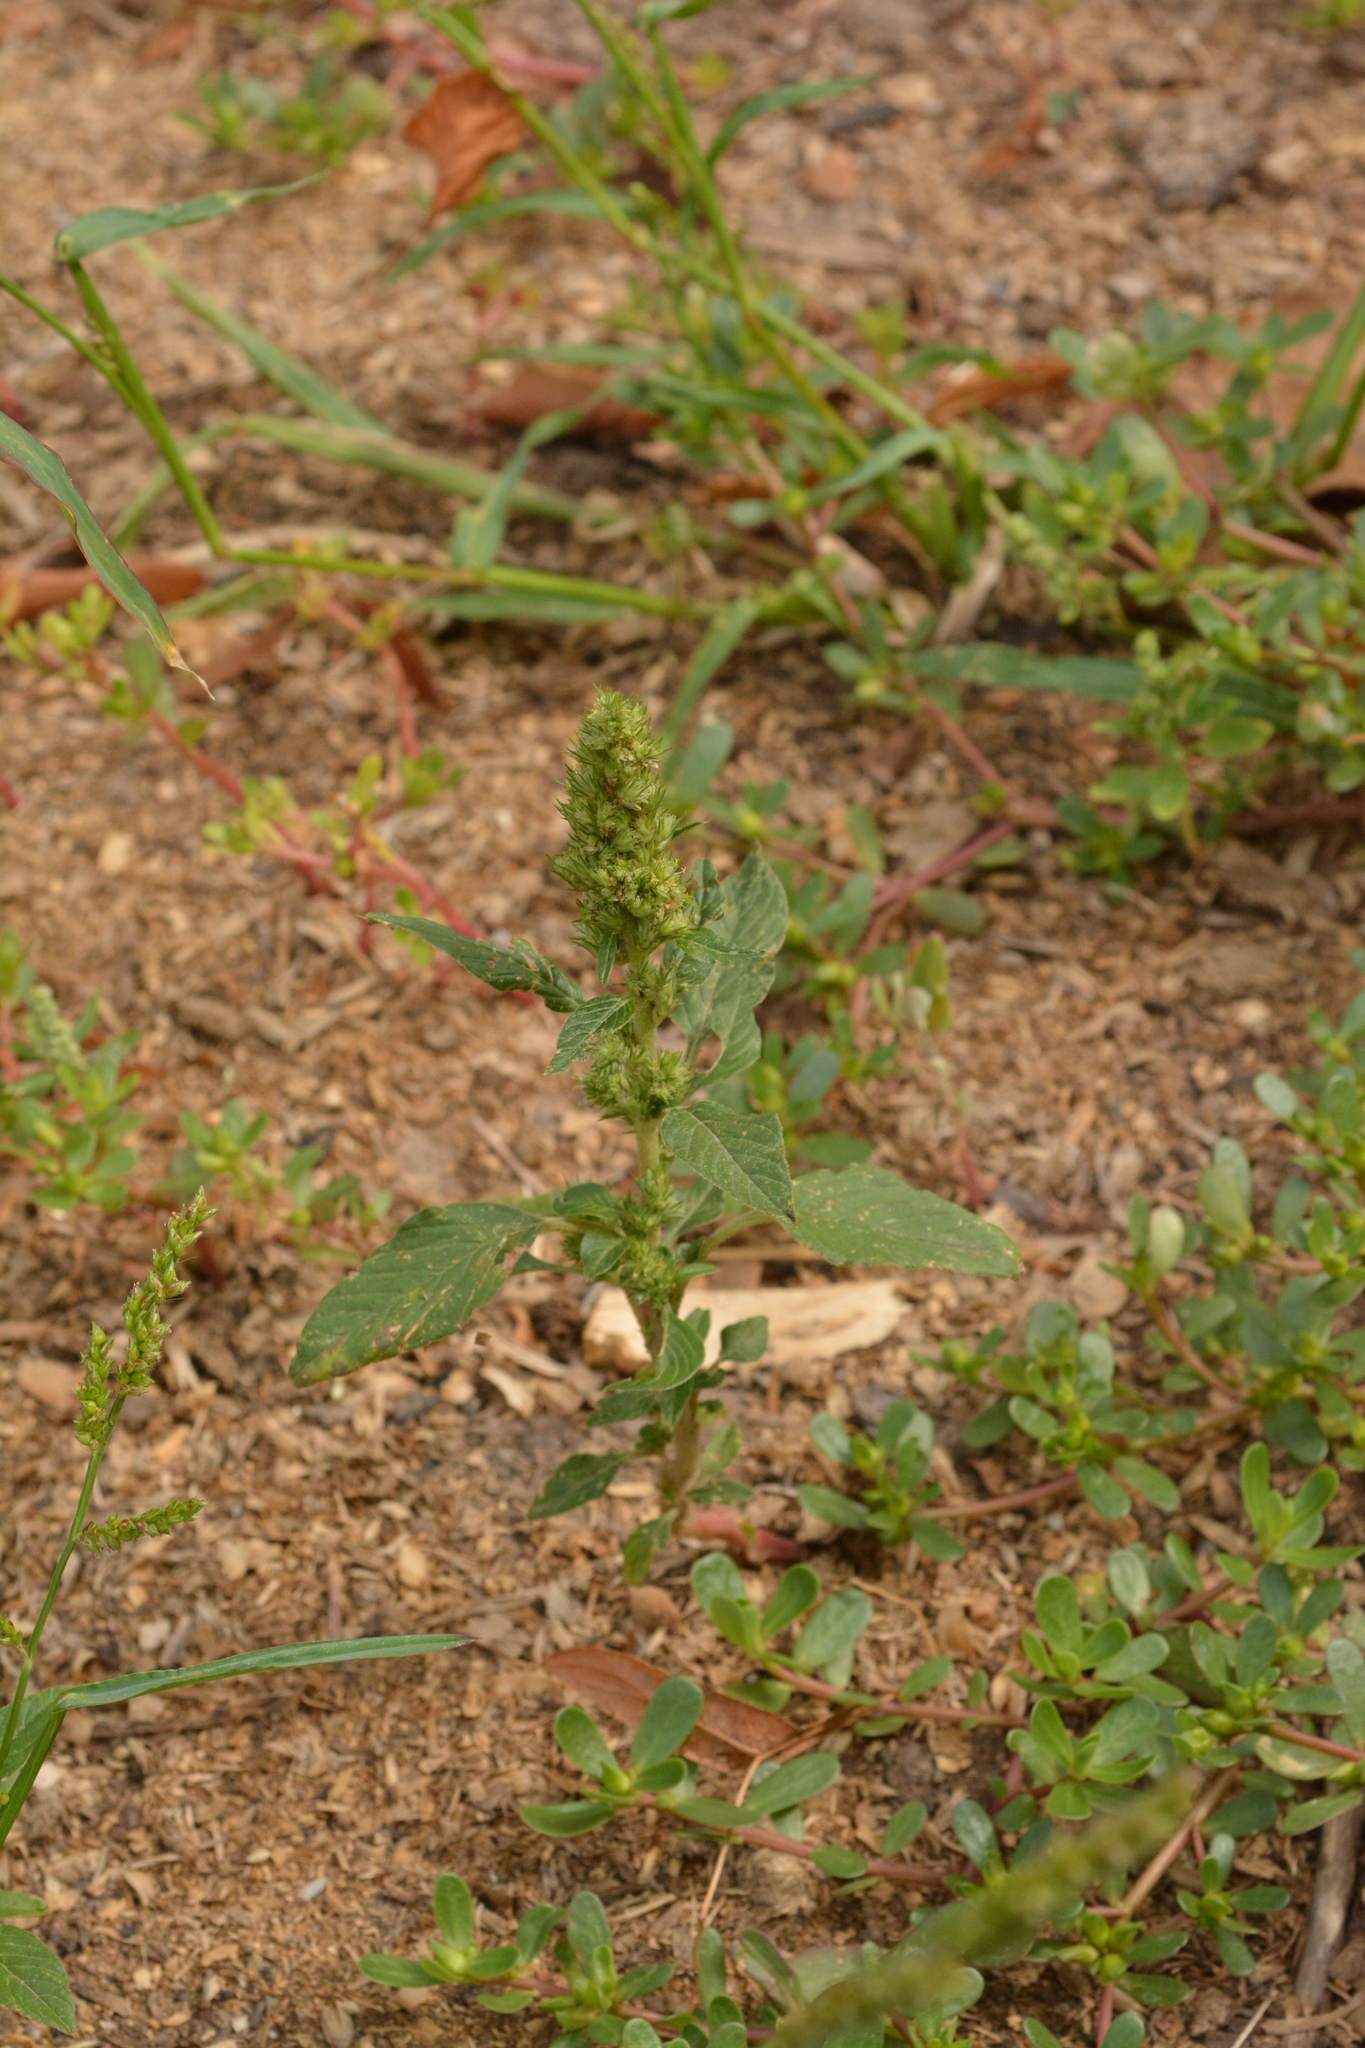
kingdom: Plantae
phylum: Tracheophyta
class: Magnoliopsida
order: Caryophyllales
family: Amaranthaceae
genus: Amaranthus
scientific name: Amaranthus retroflexus
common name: Redroot amaranth
